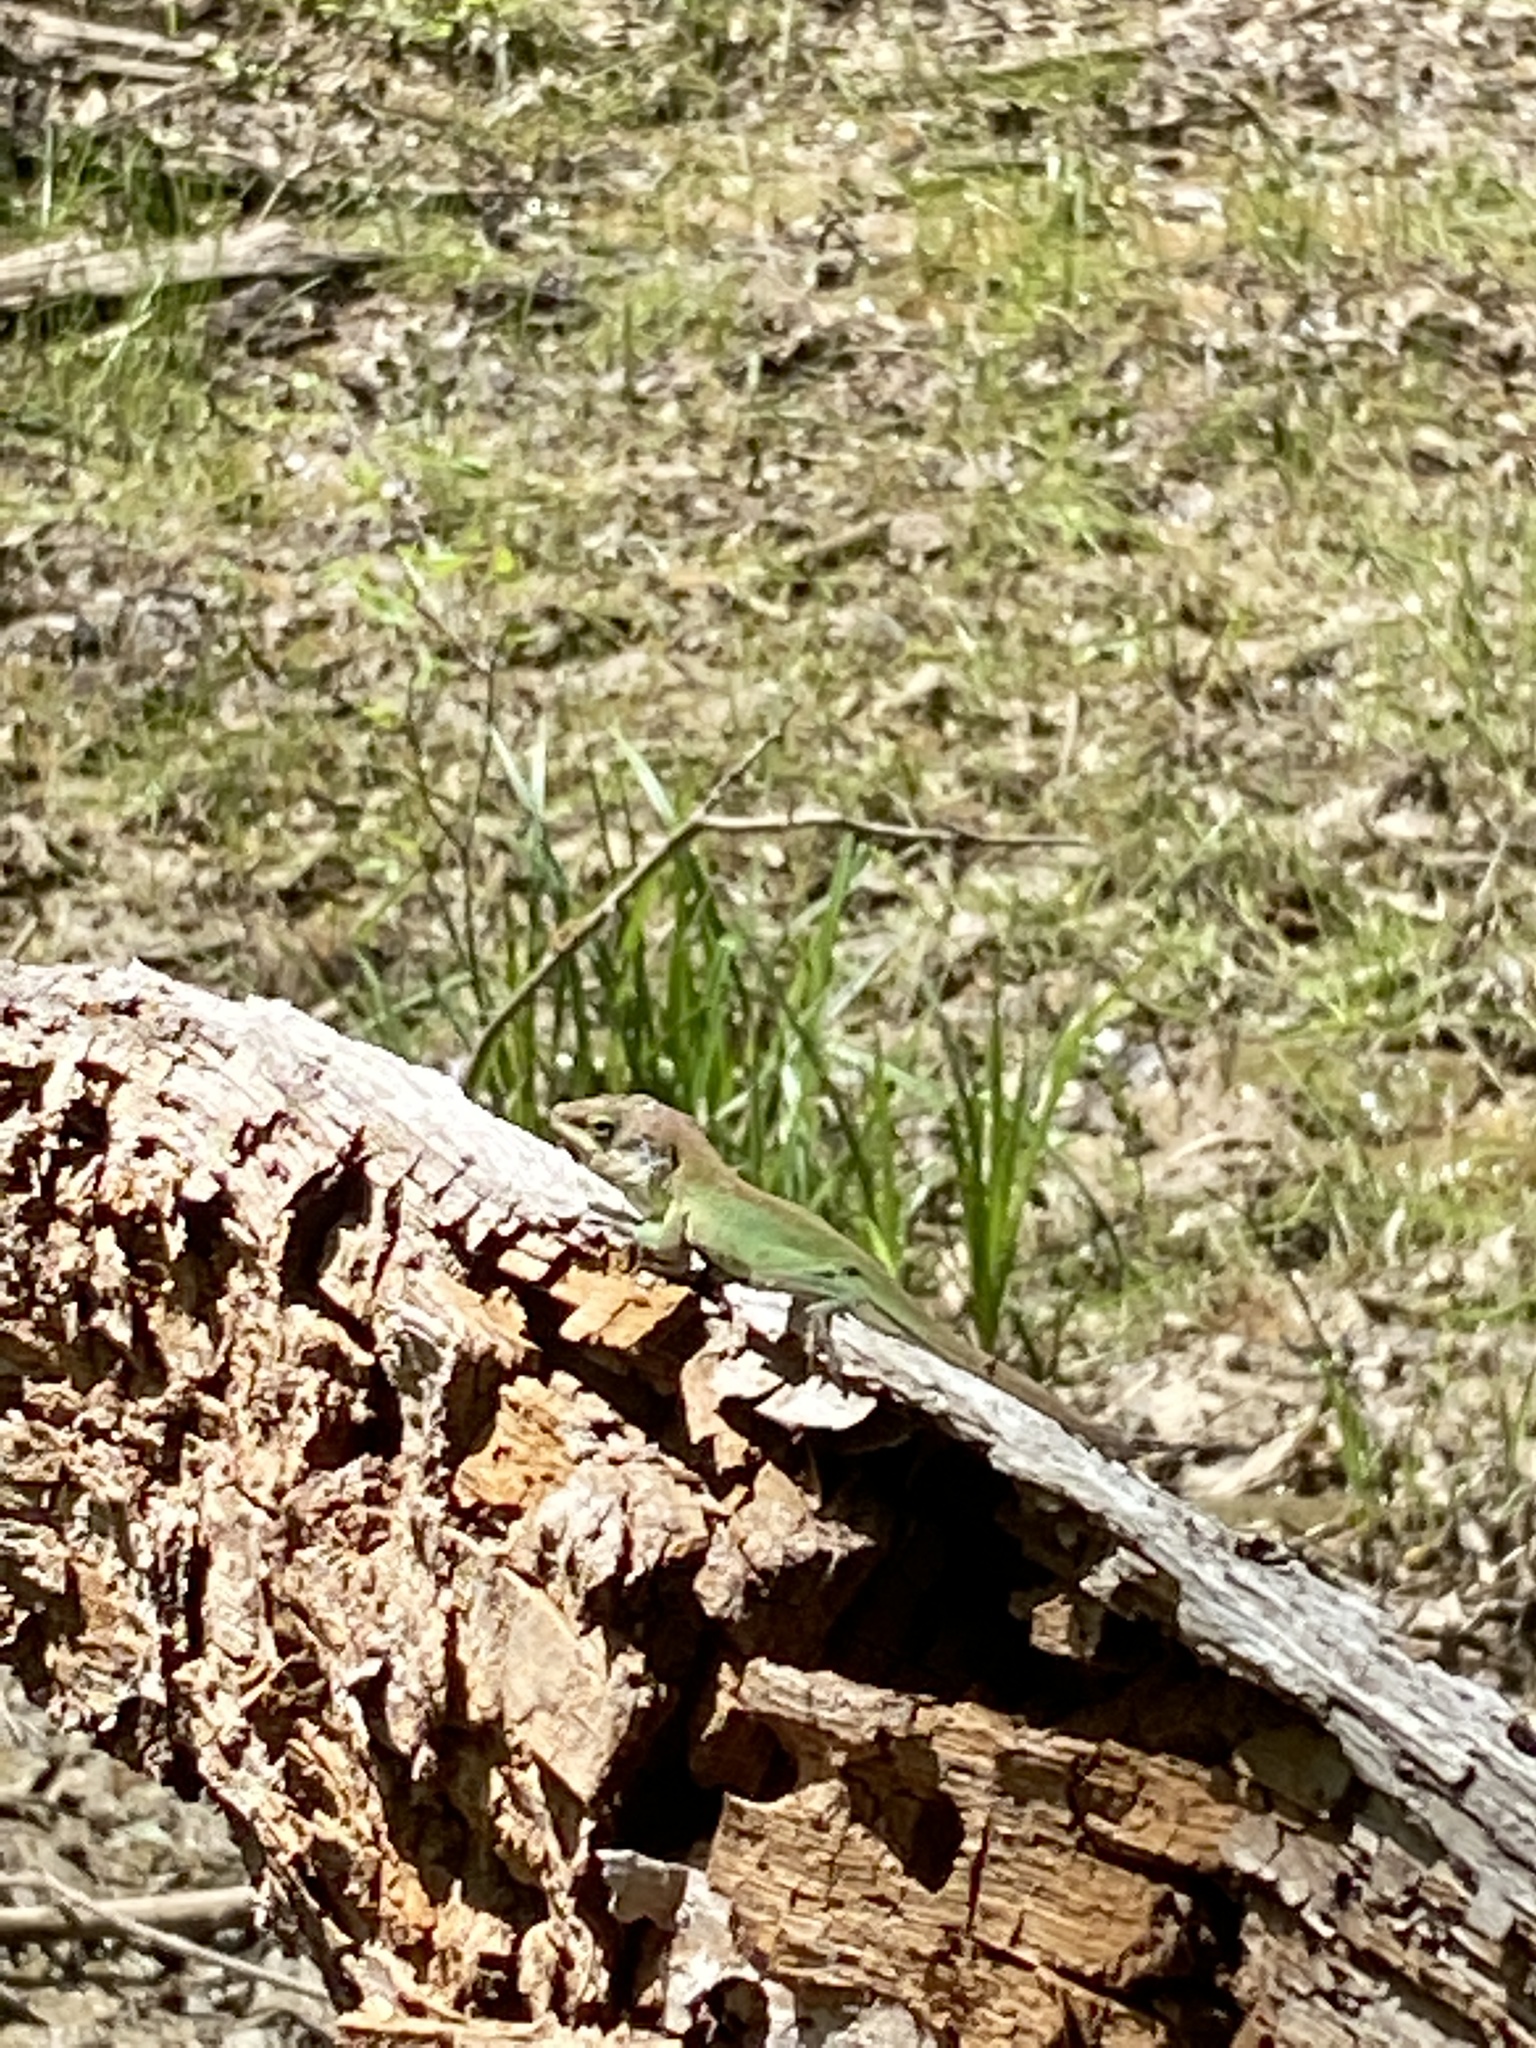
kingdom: Animalia
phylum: Chordata
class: Squamata
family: Dactyloidae
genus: Anolis
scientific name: Anolis carolinensis
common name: Green anole
